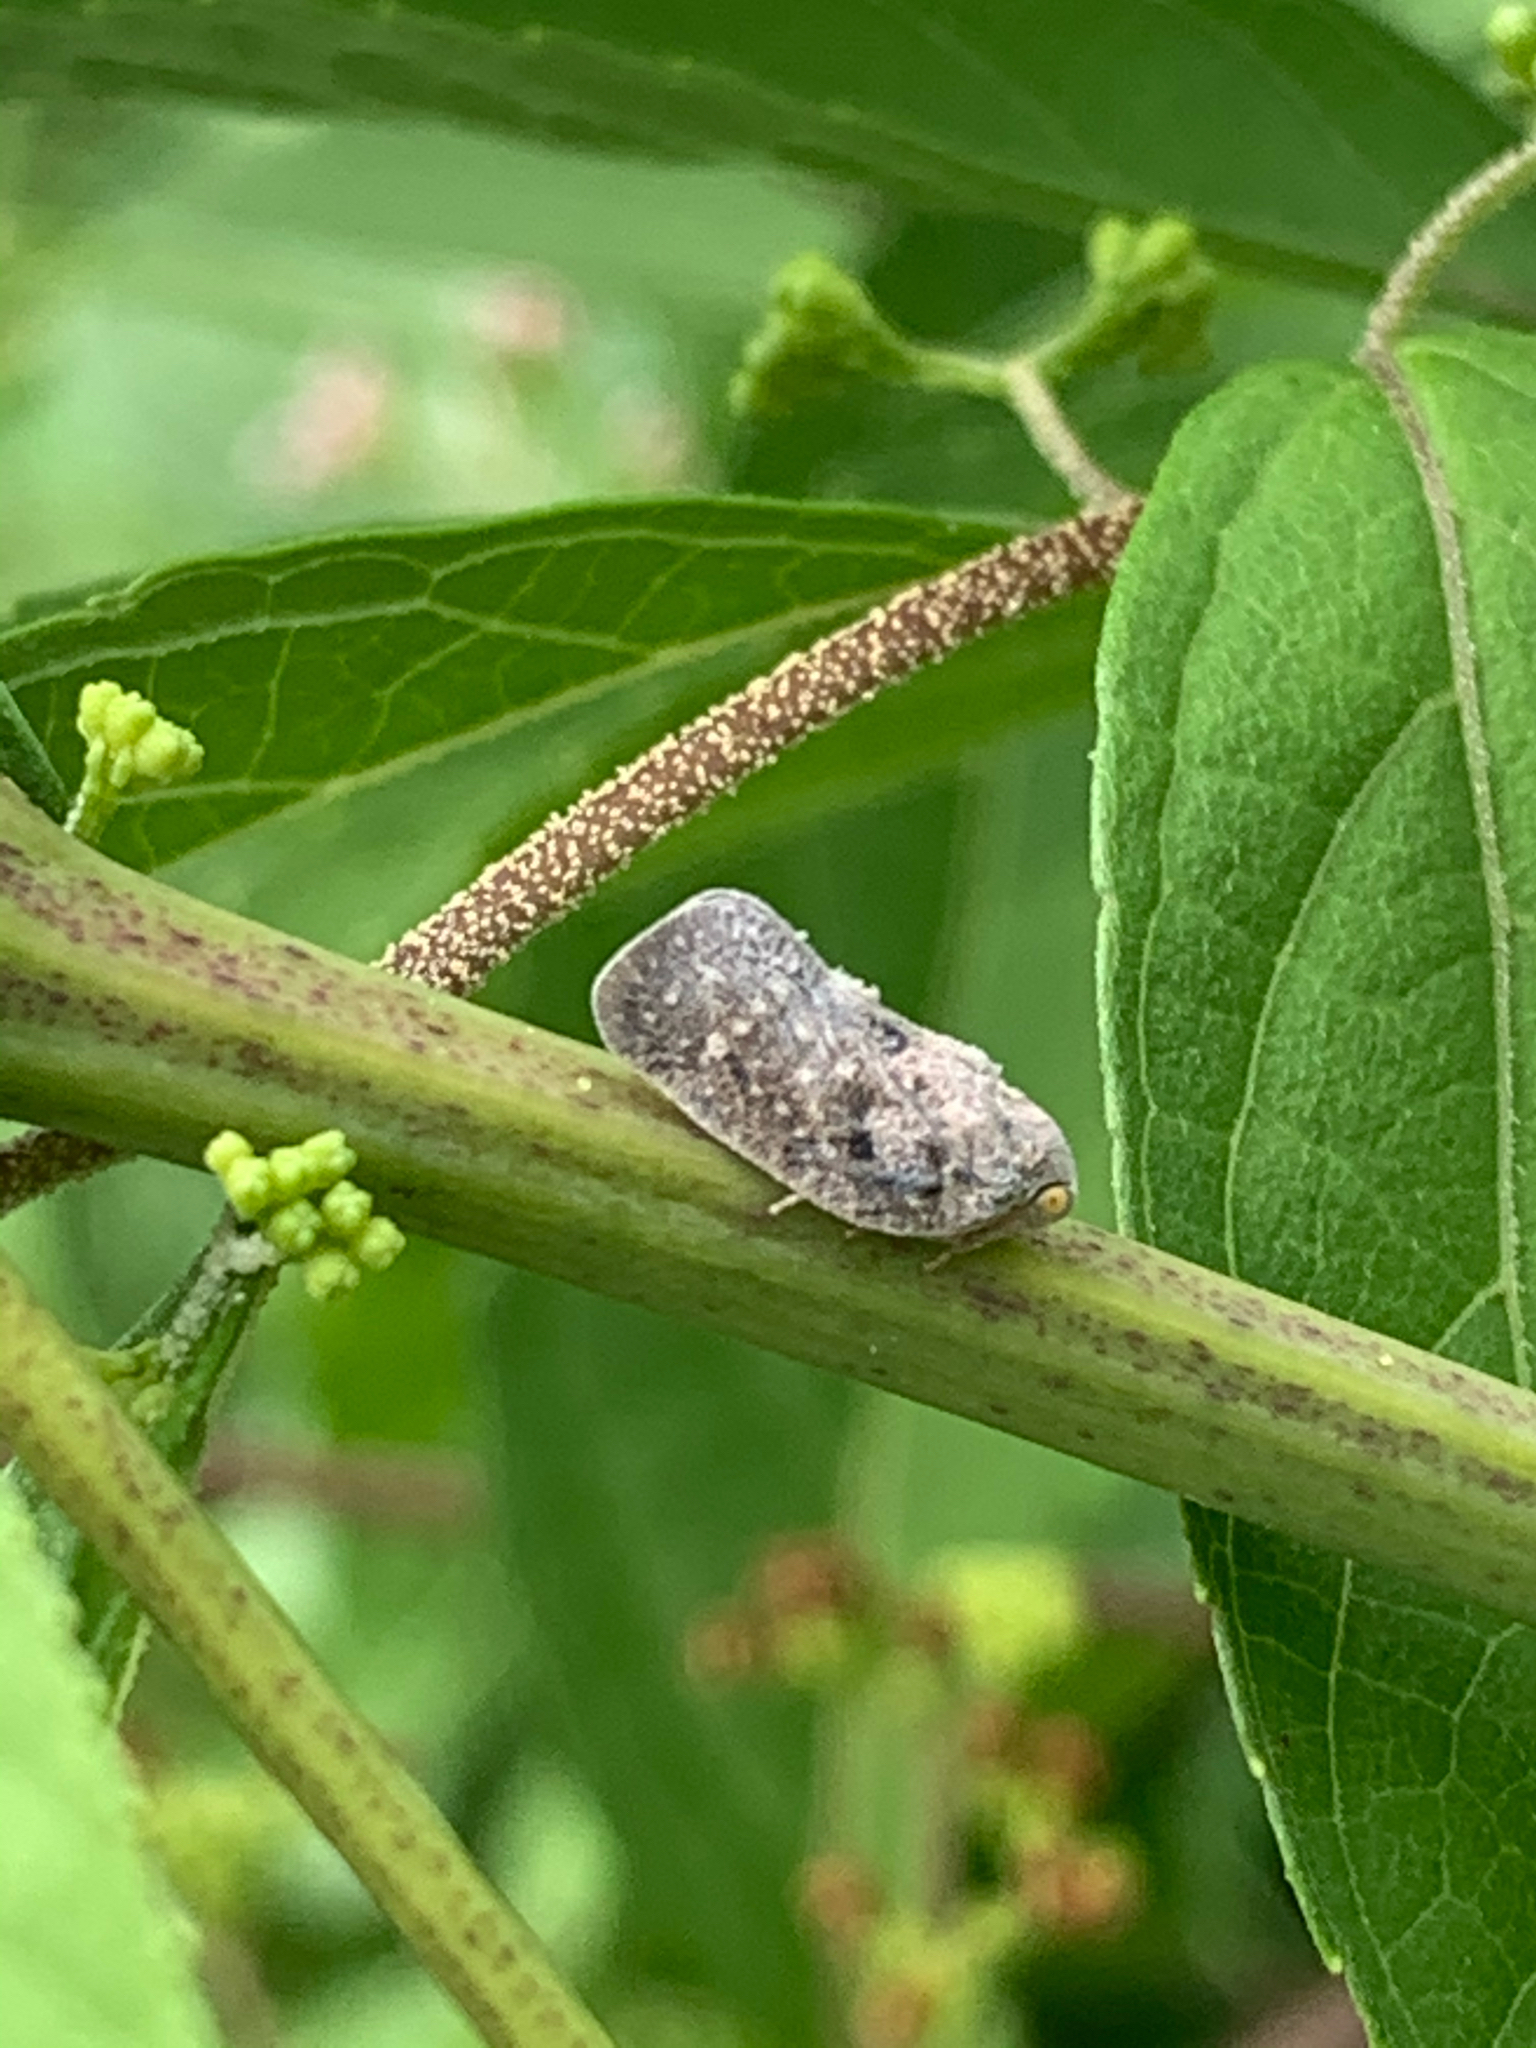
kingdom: Animalia
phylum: Arthropoda
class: Insecta
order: Hemiptera
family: Flatidae
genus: Metcalfa
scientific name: Metcalfa pruinosa
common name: Citrus flatid planthopper
